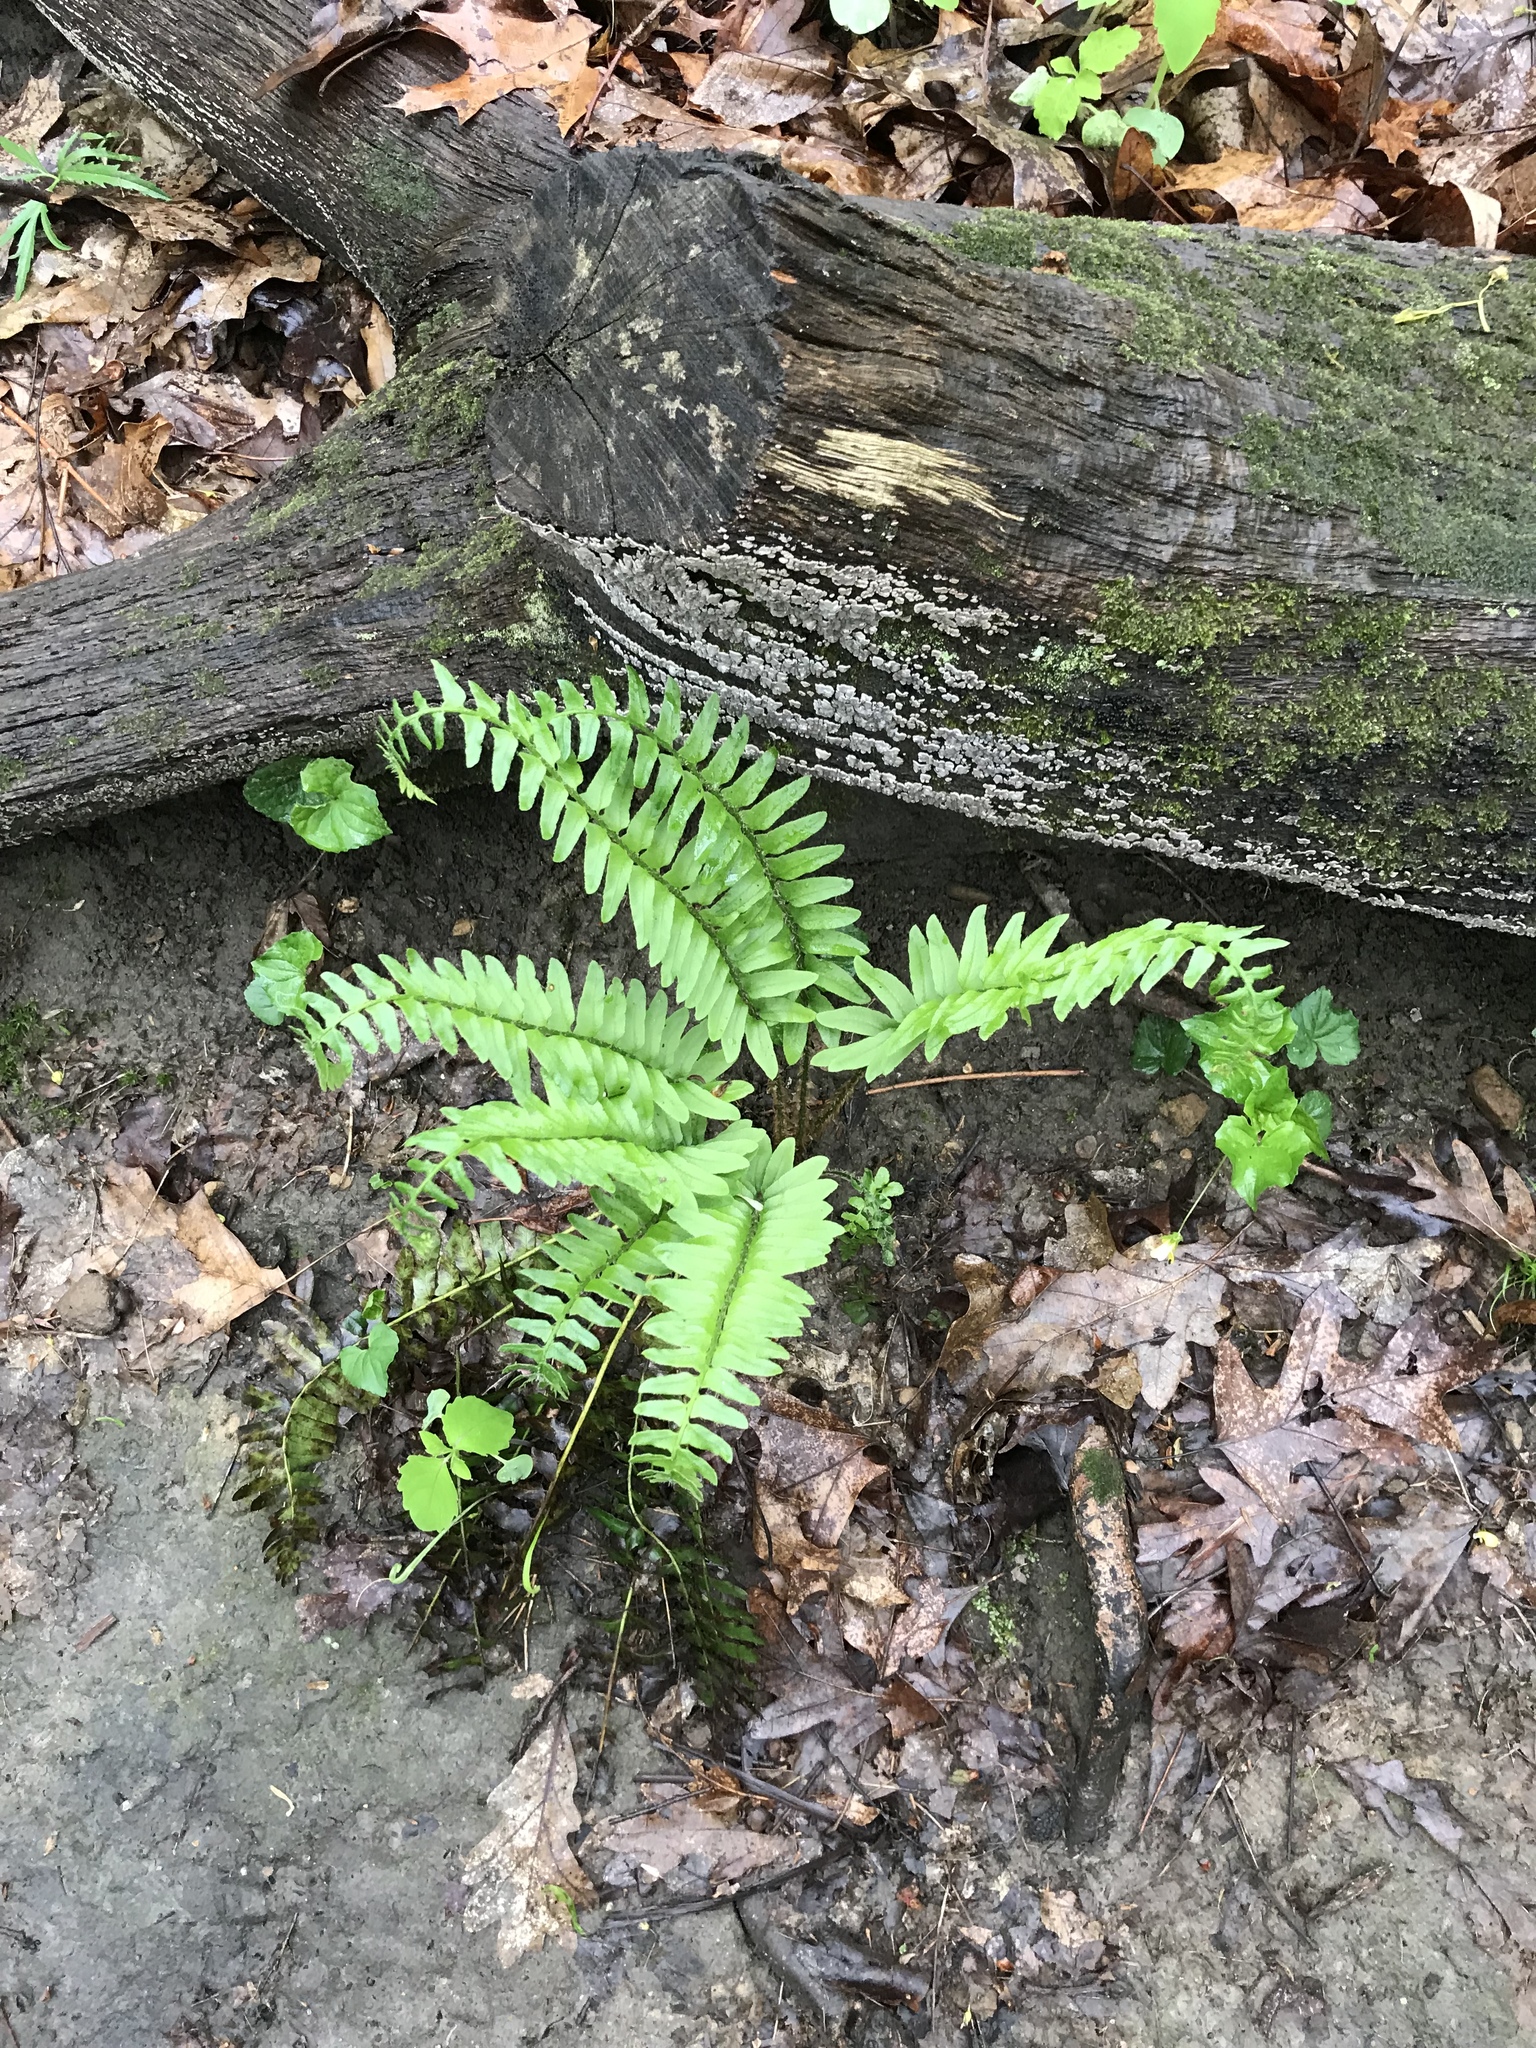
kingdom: Plantae
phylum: Tracheophyta
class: Polypodiopsida
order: Polypodiales
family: Dryopteridaceae
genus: Polystichum
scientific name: Polystichum acrostichoides
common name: Christmas fern
